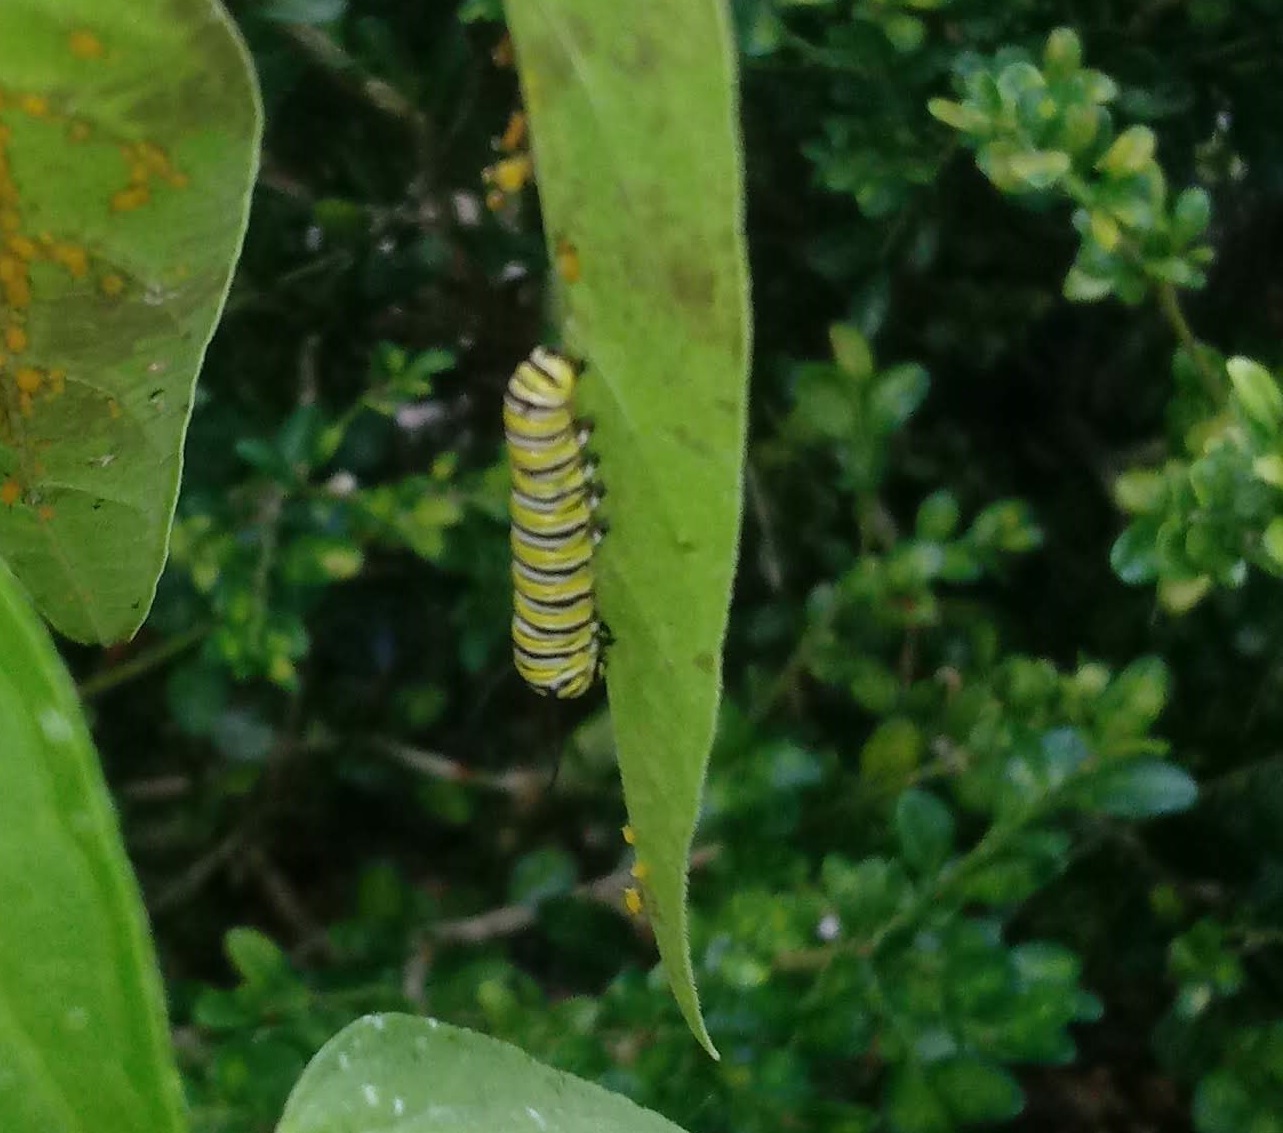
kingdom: Animalia
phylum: Arthropoda
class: Insecta
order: Lepidoptera
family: Nymphalidae
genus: Danaus
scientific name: Danaus plexippus
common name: Monarch
